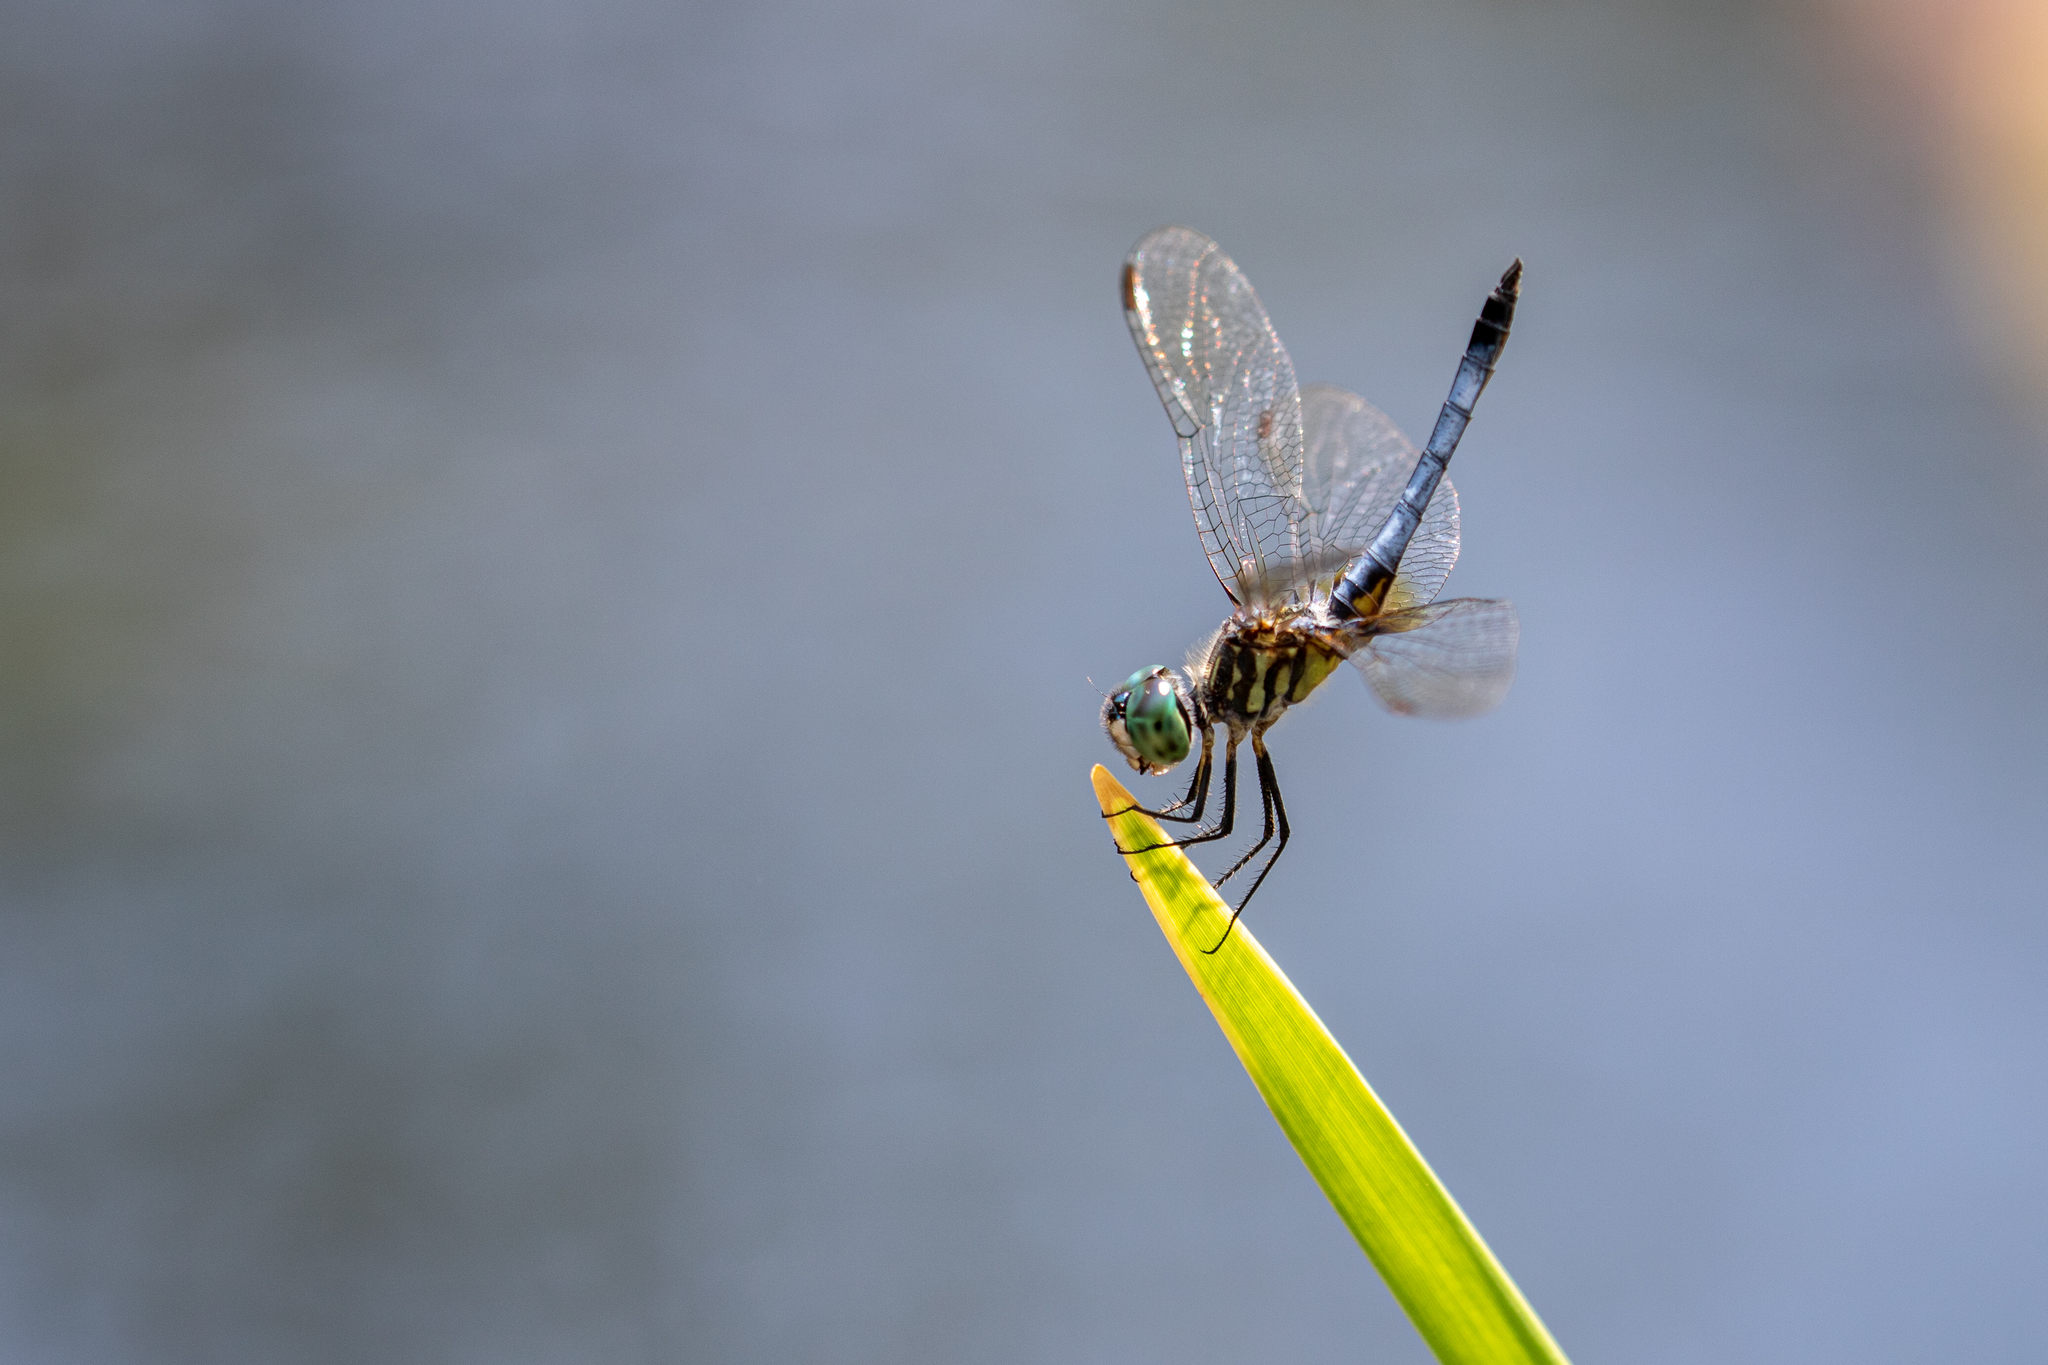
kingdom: Animalia
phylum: Arthropoda
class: Insecta
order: Odonata
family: Libellulidae
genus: Pachydiplax
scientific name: Pachydiplax longipennis
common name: Blue dasher
